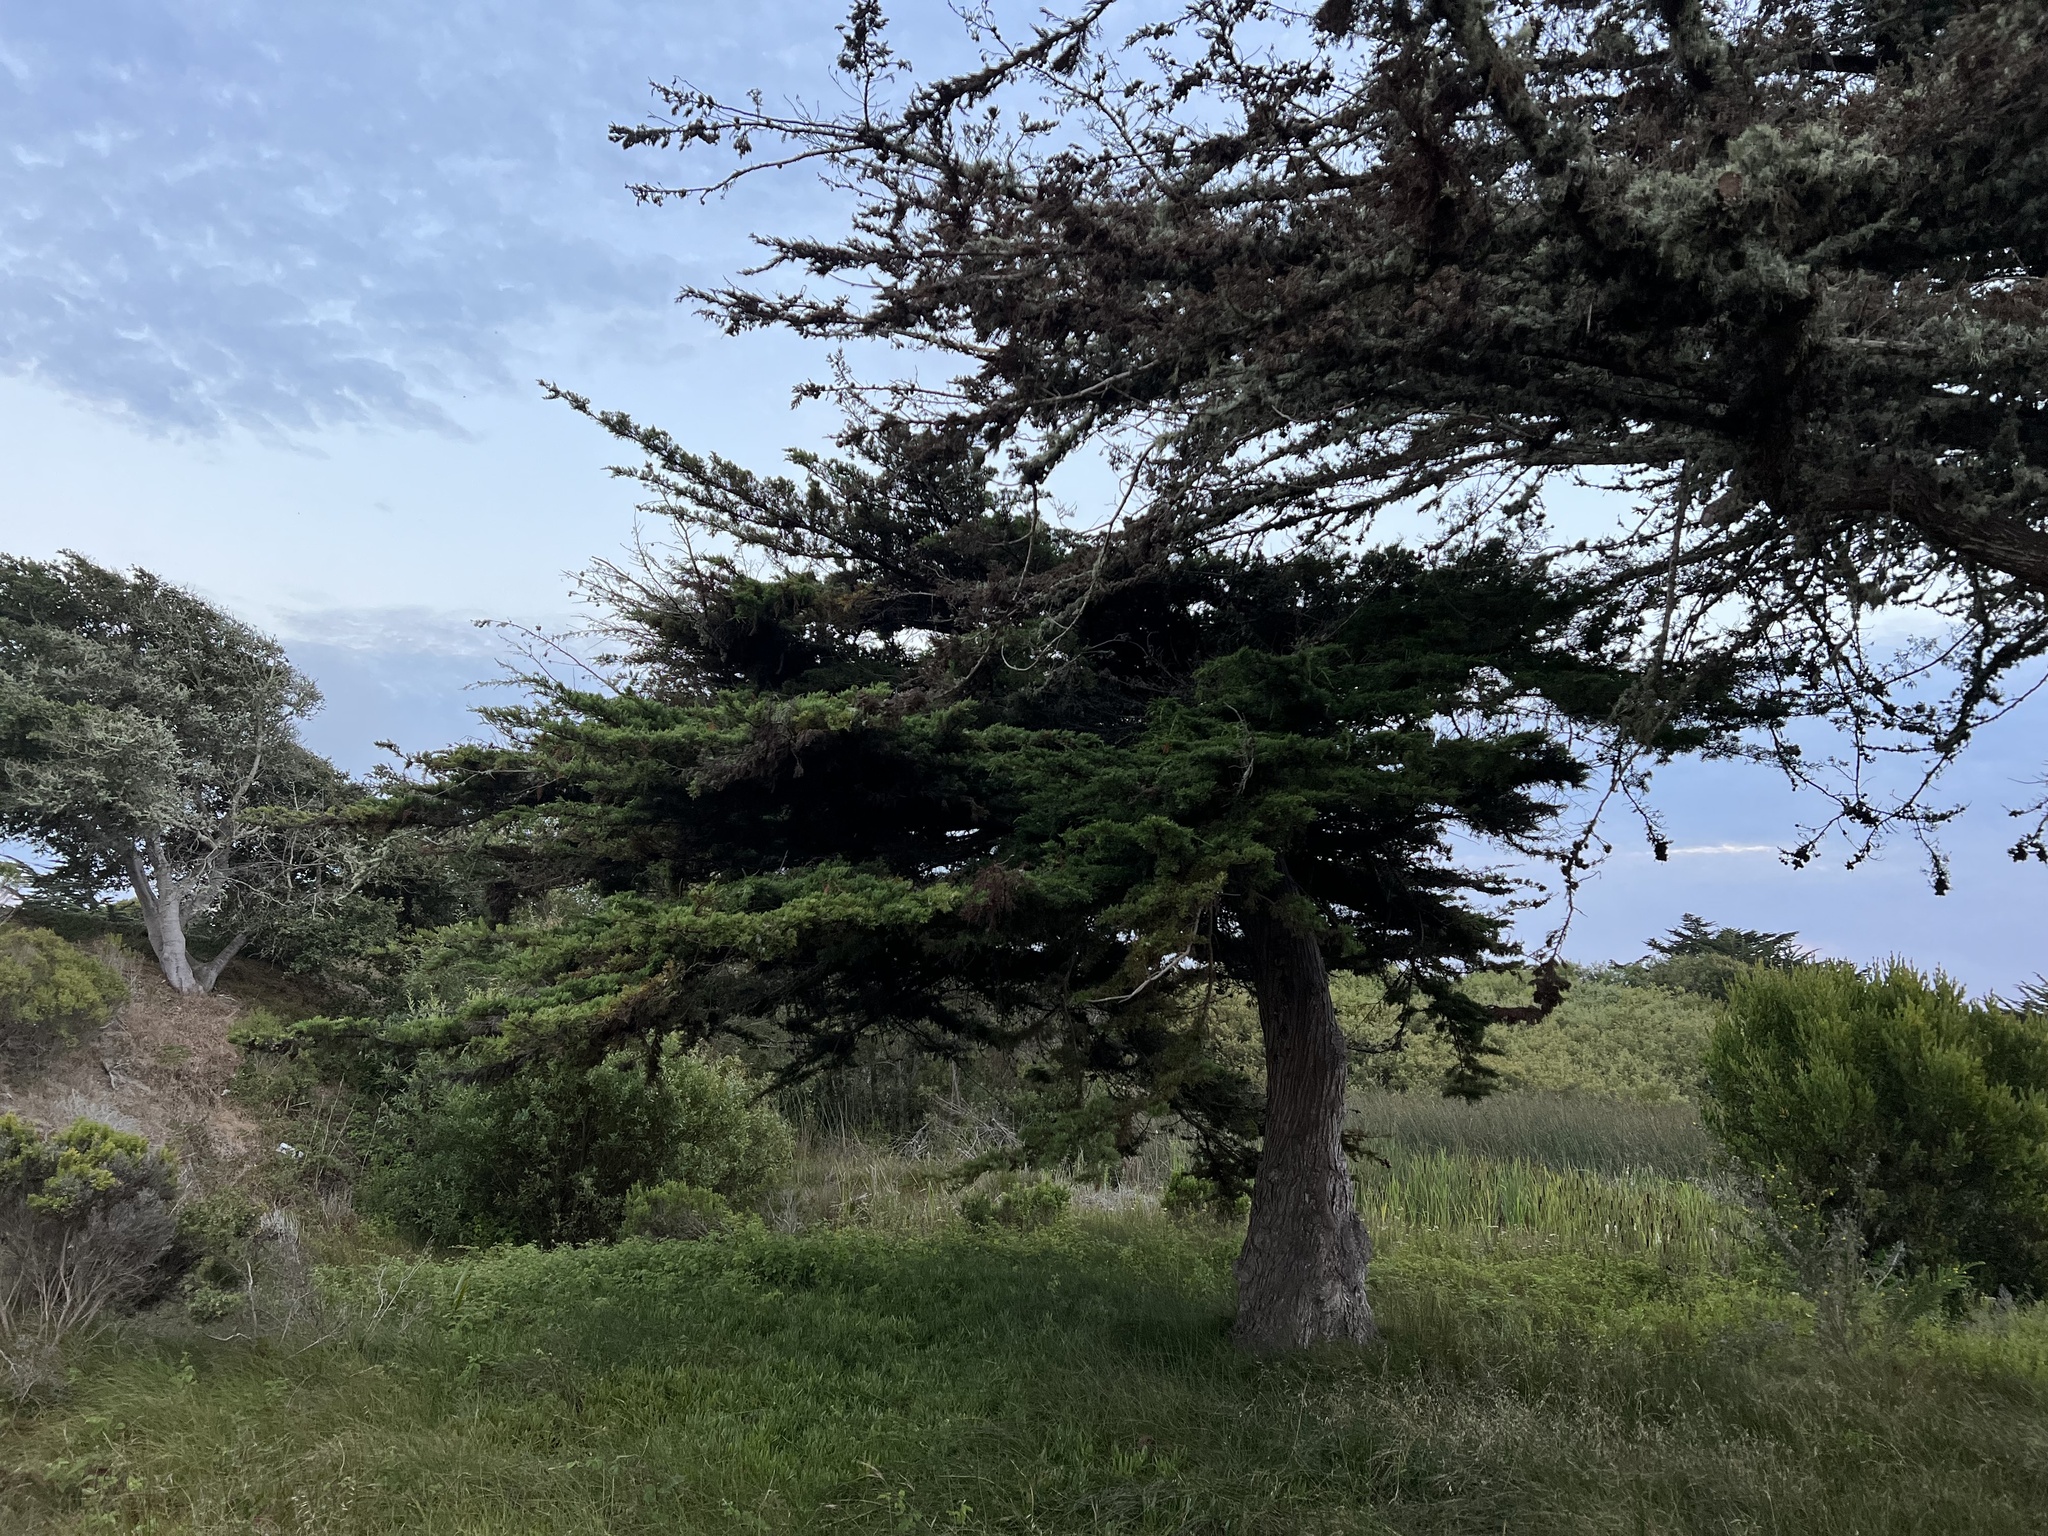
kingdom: Plantae
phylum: Tracheophyta
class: Pinopsida
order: Pinales
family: Cupressaceae
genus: Cupressus
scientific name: Cupressus macrocarpa
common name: Monterey cypress
